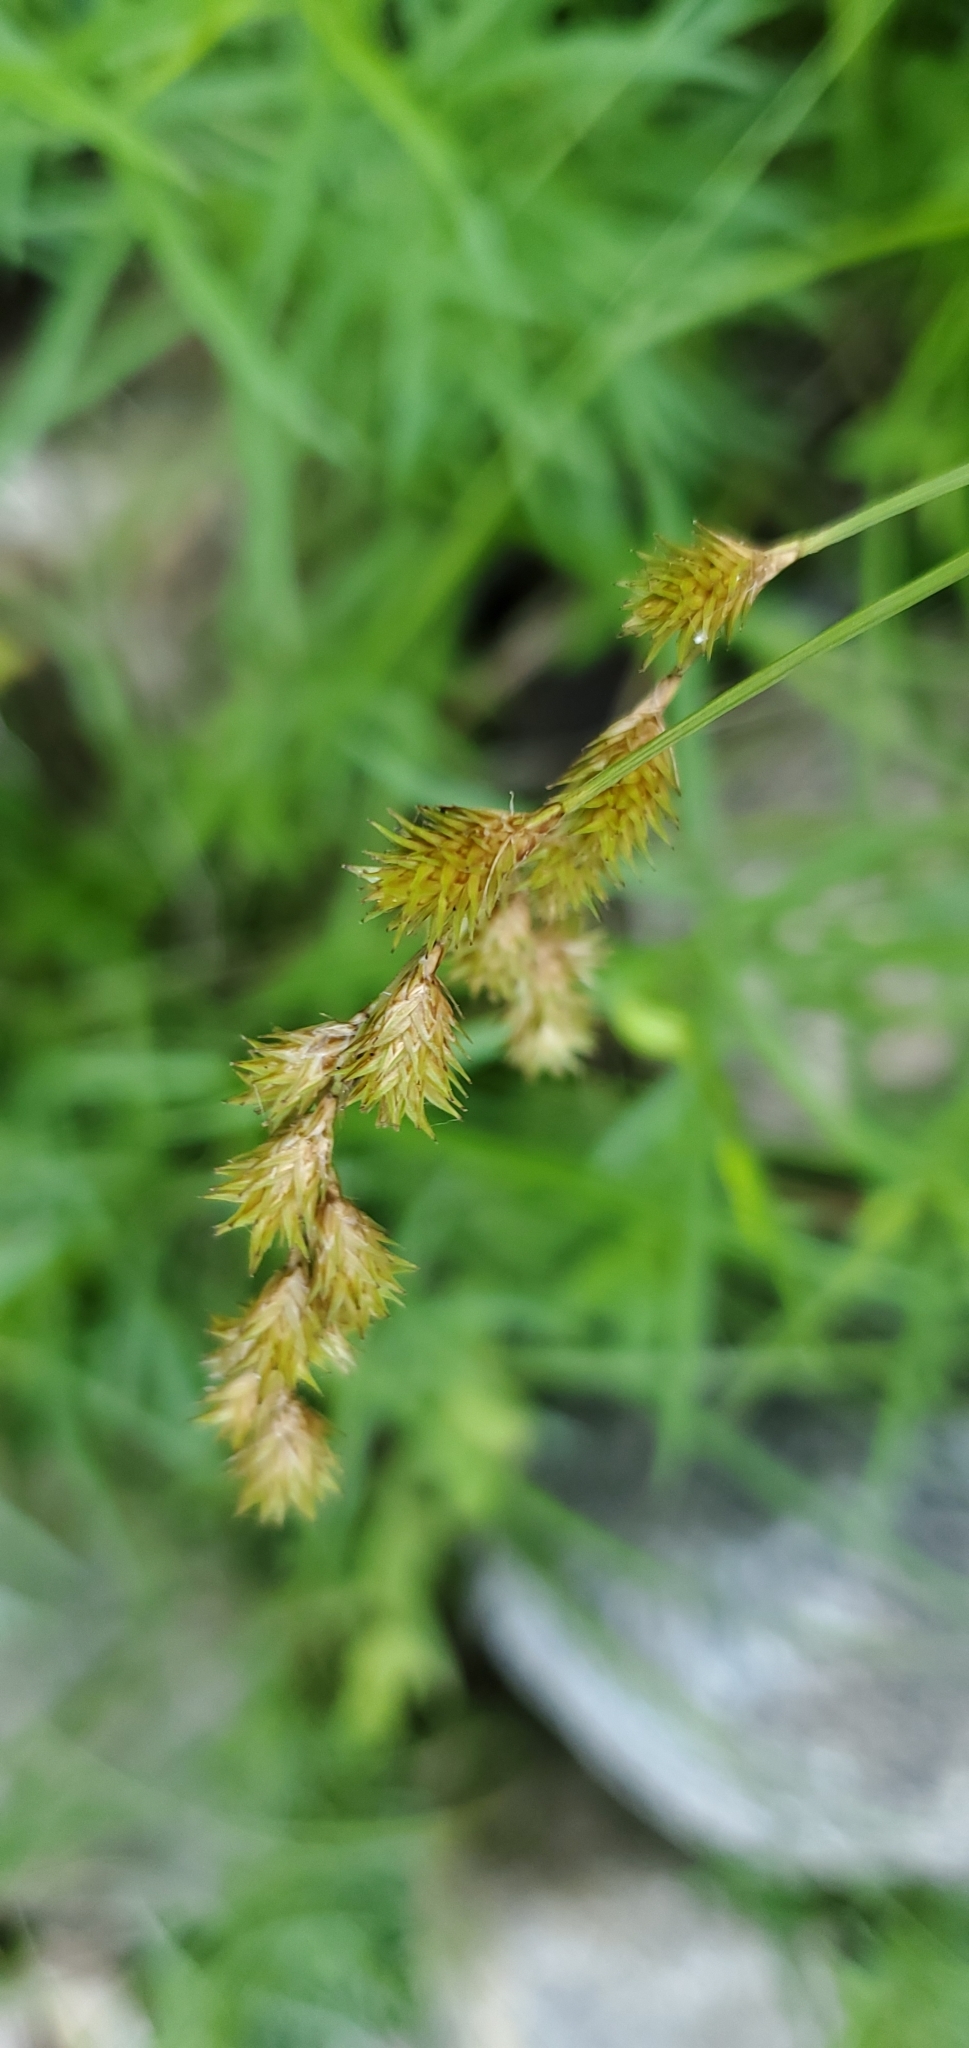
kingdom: Plantae
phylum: Tracheophyta
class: Liliopsida
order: Poales
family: Cyperaceae
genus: Carex
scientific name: Carex projecta
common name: Loose-headed oval sedge
